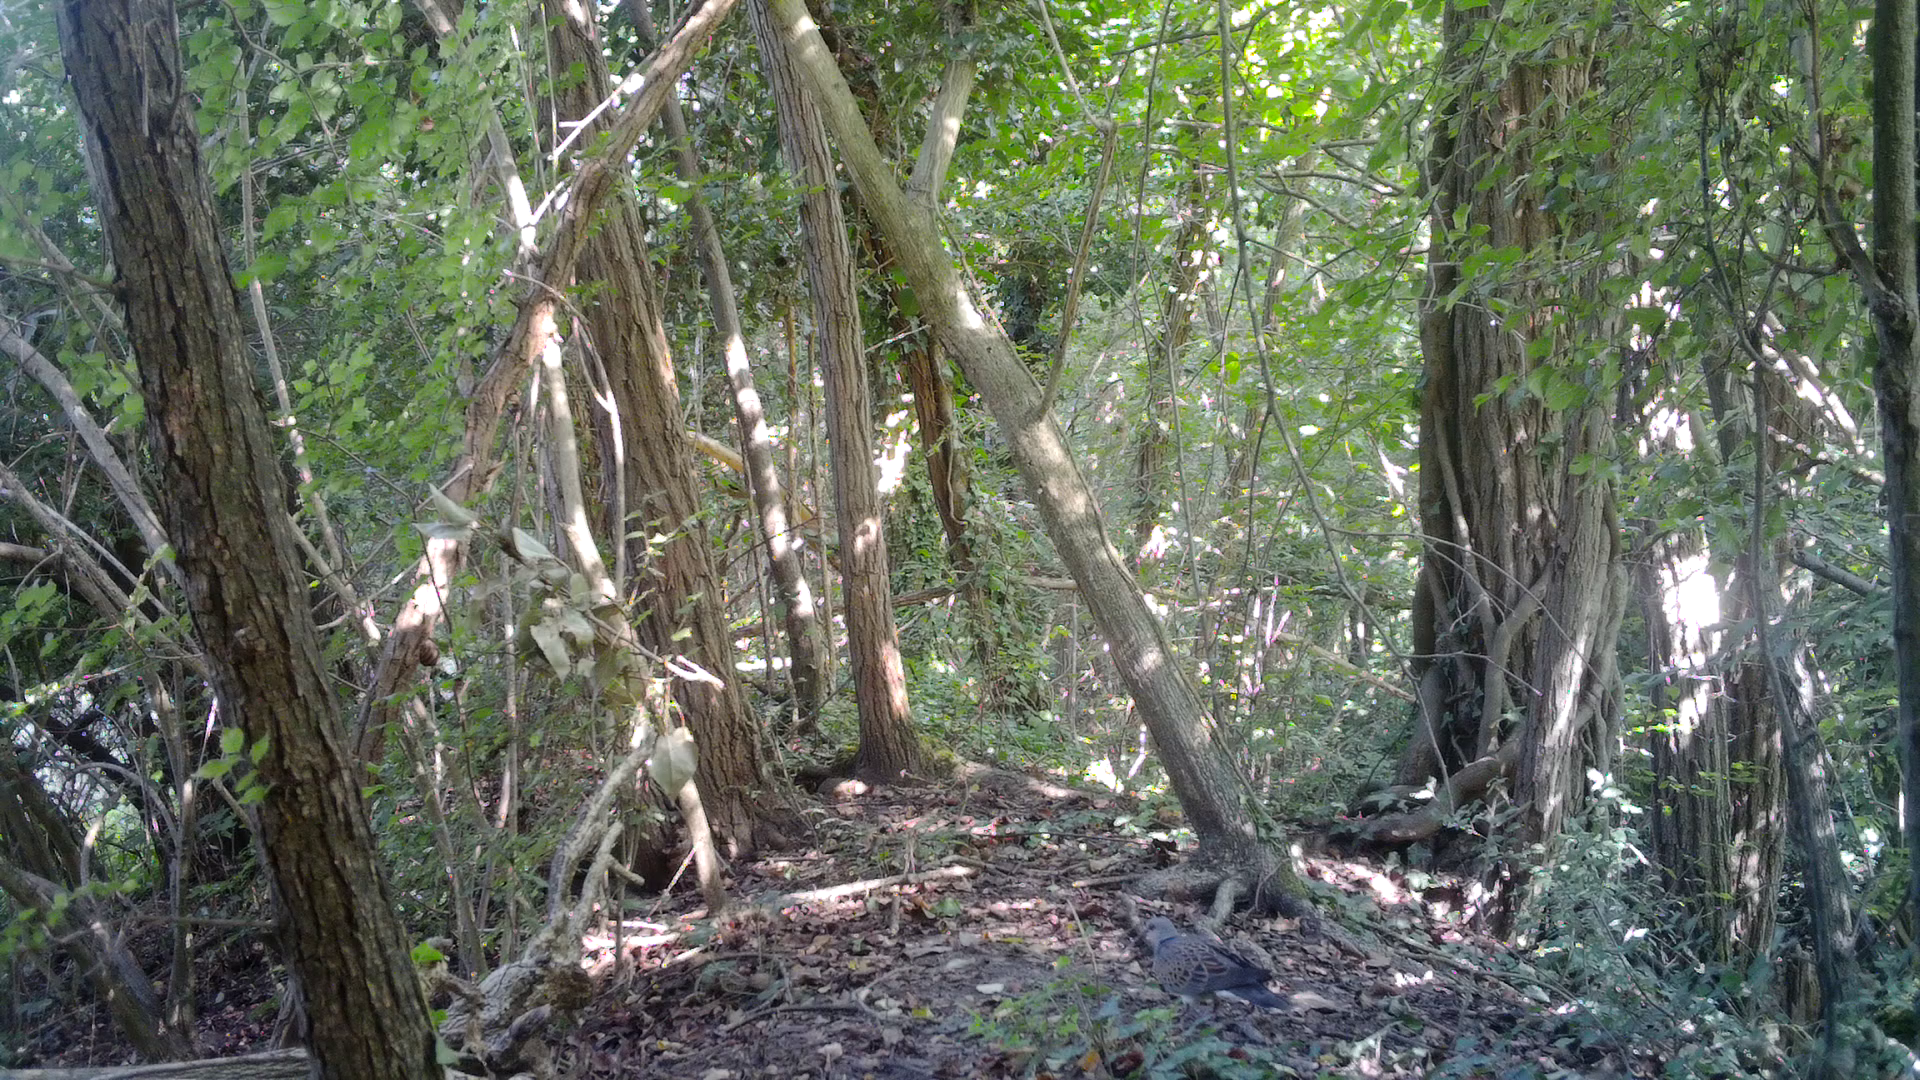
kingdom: Animalia
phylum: Chordata
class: Aves
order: Columbiformes
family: Columbidae
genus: Streptopelia
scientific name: Streptopelia turtur
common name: European turtle dove
